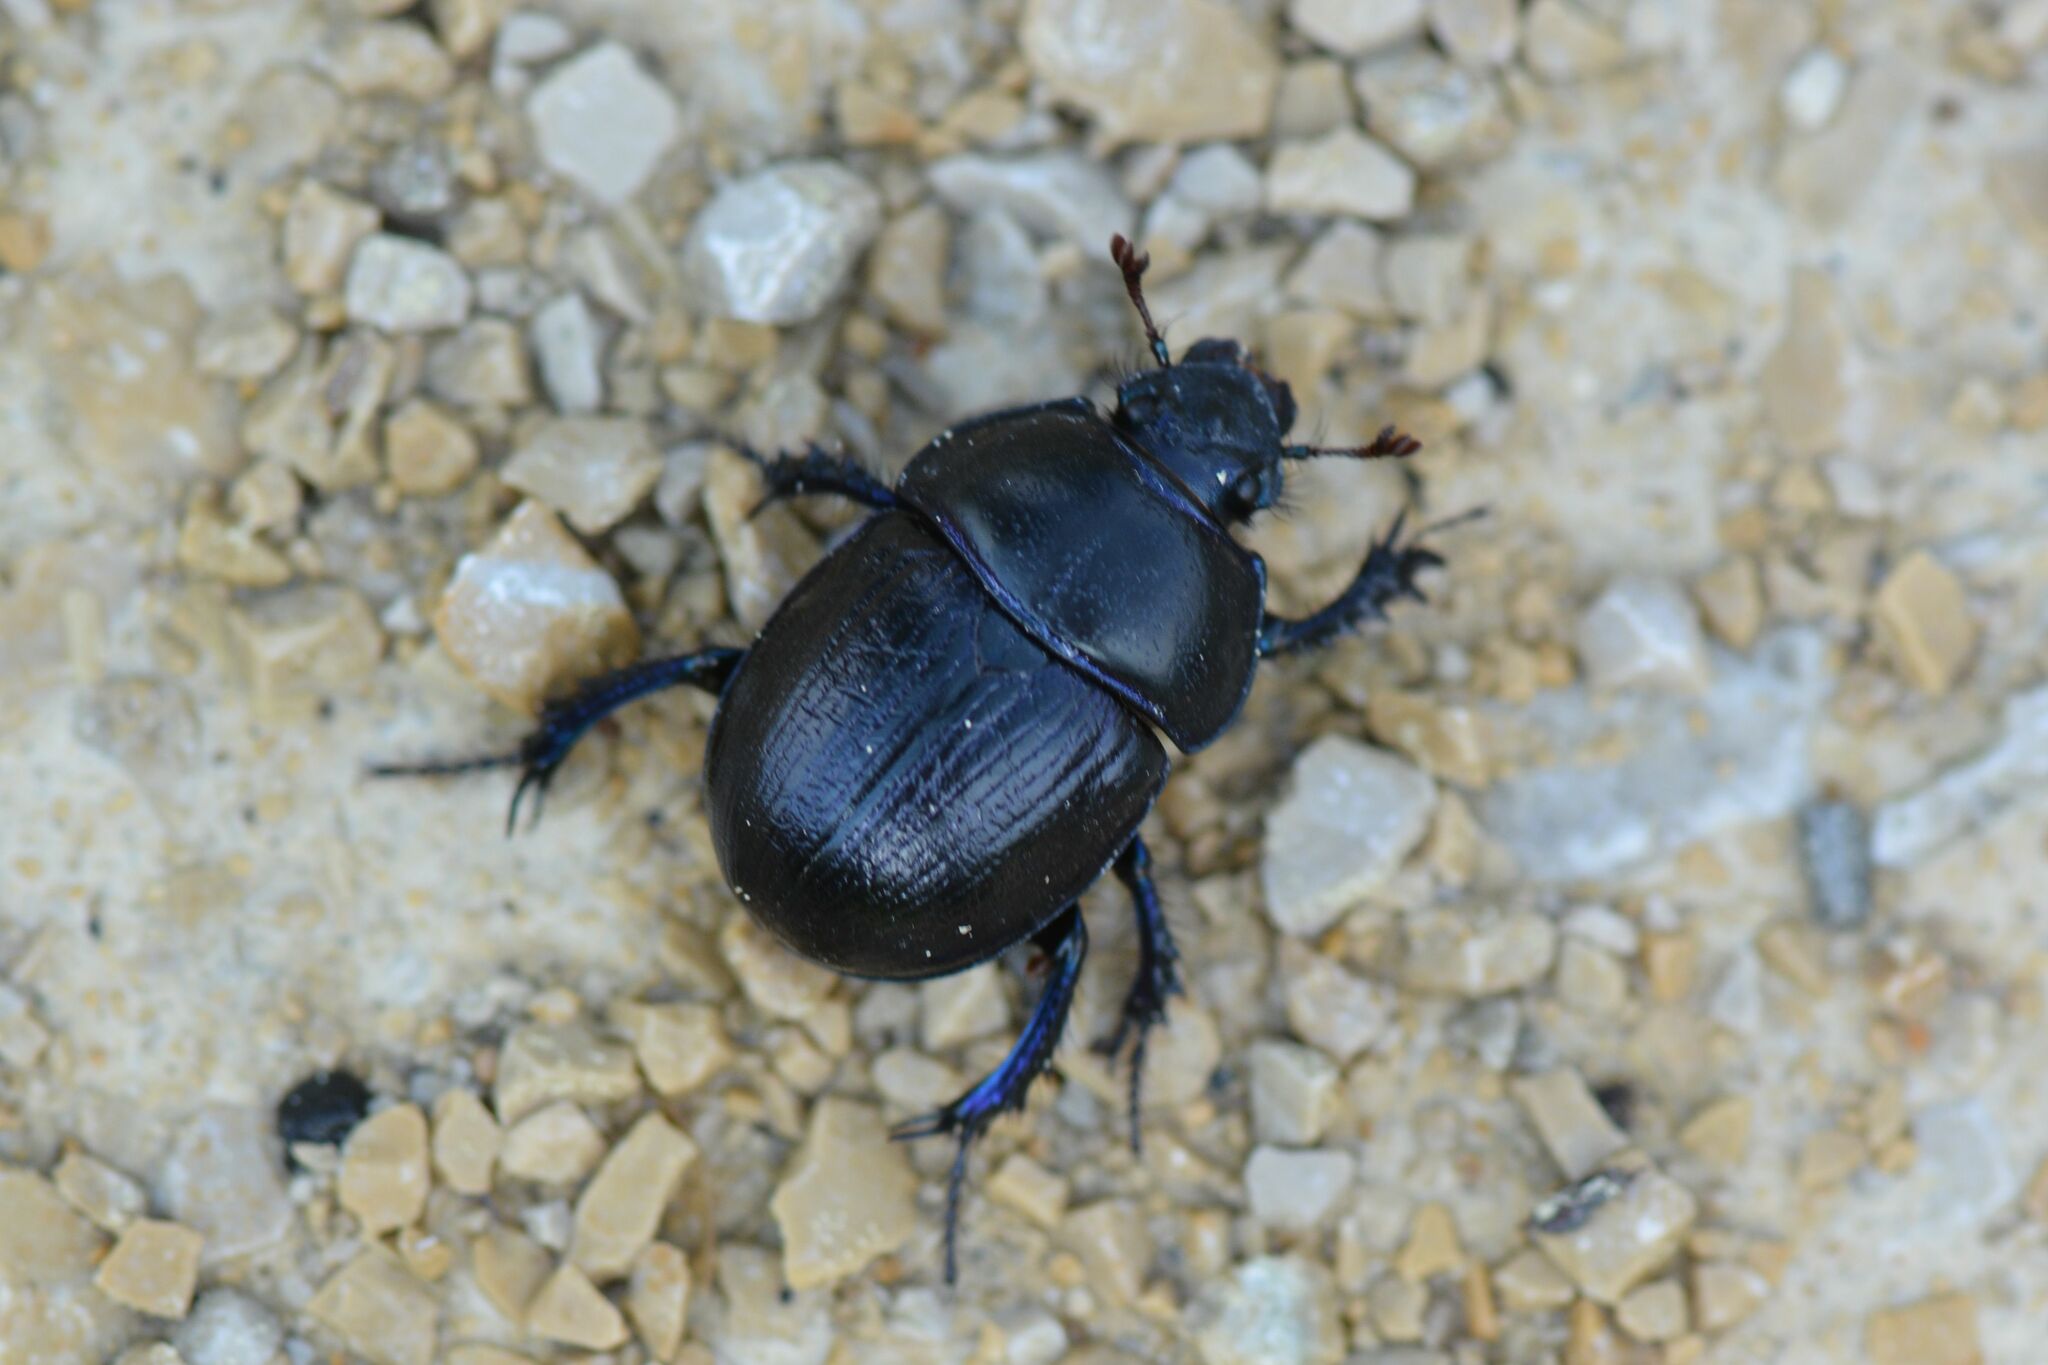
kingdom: Animalia
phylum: Arthropoda
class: Insecta
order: Coleoptera
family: Geotrupidae
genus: Anoplotrupes
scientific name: Anoplotrupes stercorosus
